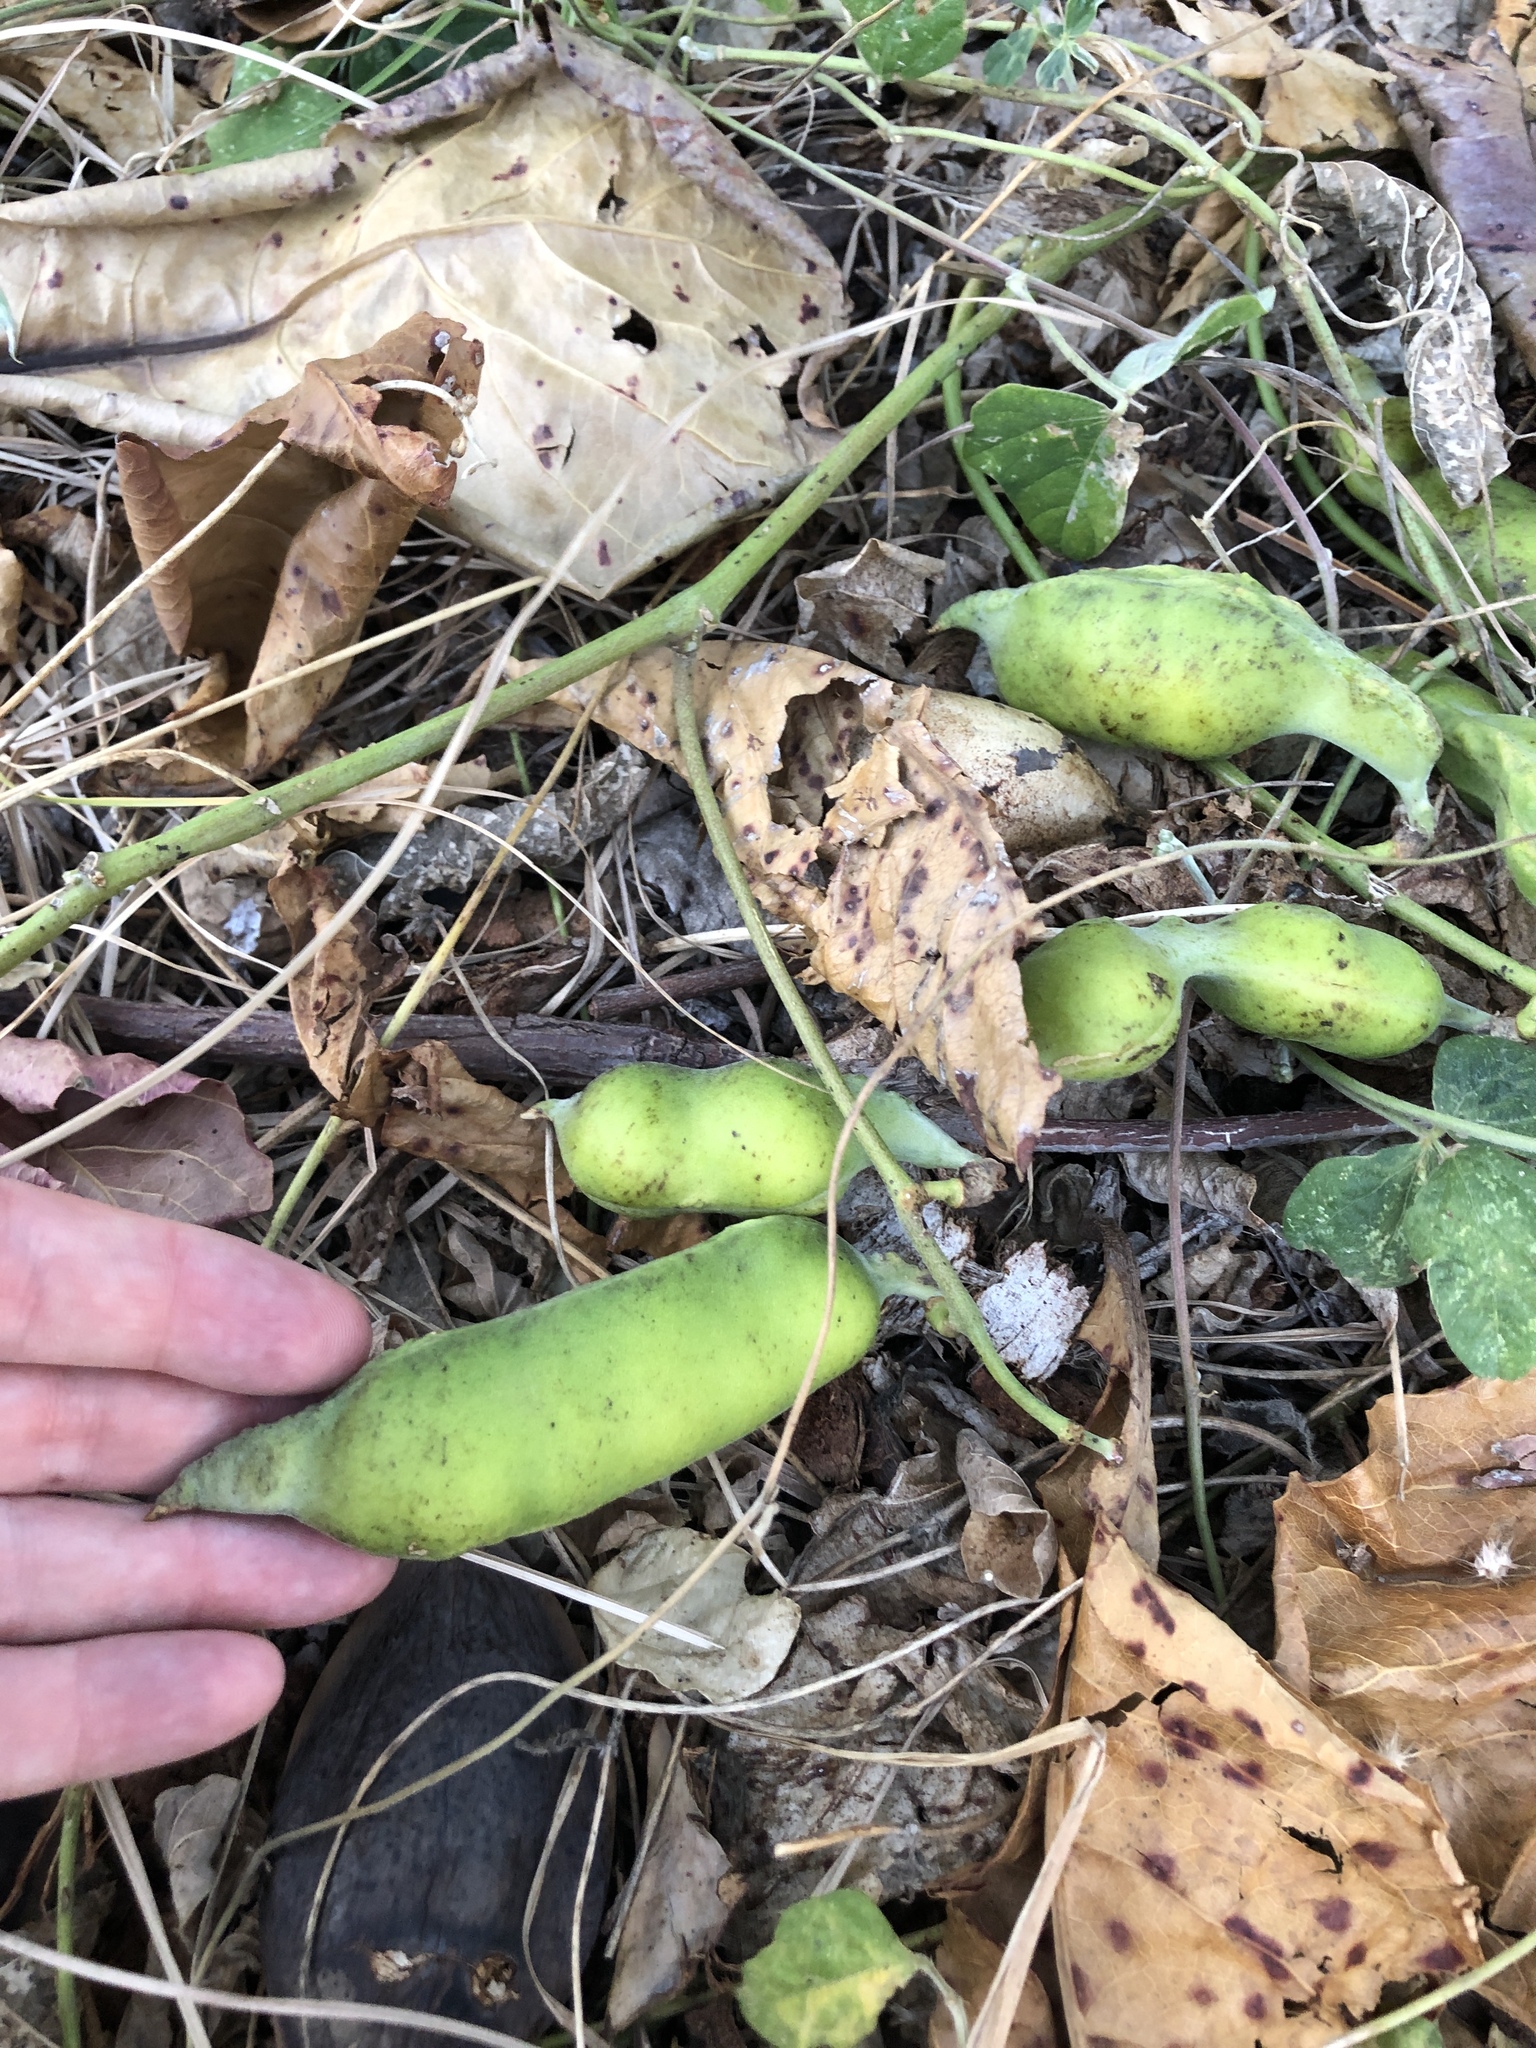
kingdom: Plantae
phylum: Tracheophyta
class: Magnoliopsida
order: Fabales
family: Fabaceae
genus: Canavalia
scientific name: Canavalia rosea
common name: Beach-bean
